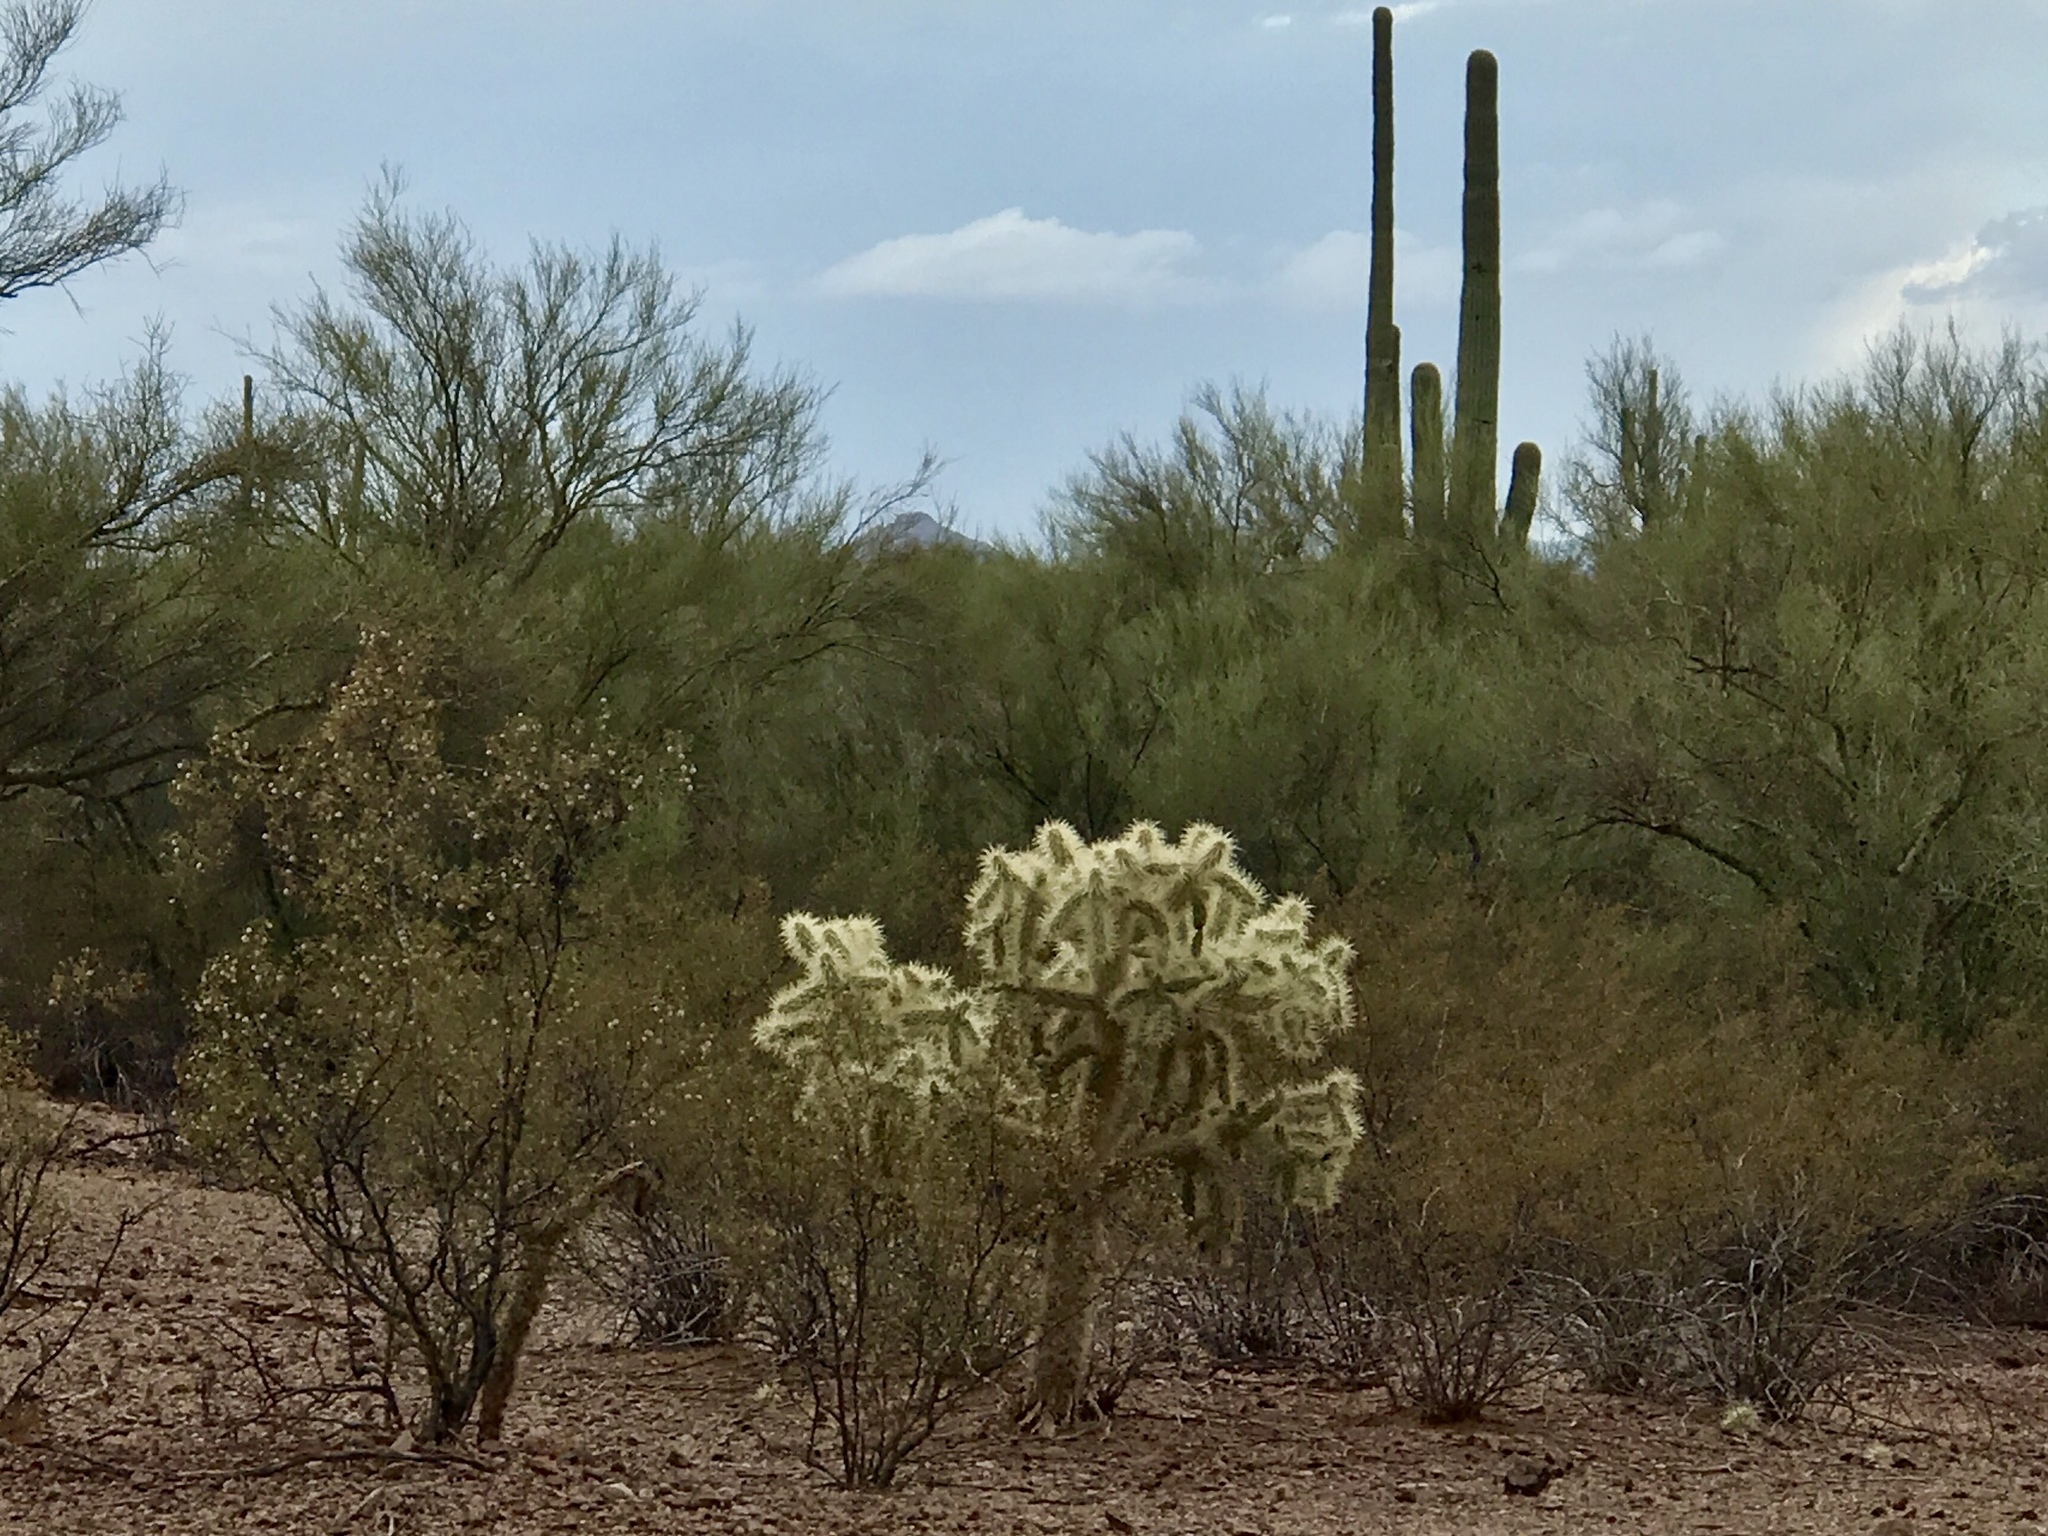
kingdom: Plantae
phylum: Tracheophyta
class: Magnoliopsida
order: Caryophyllales
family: Cactaceae
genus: Cylindropuntia
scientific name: Cylindropuntia fosbergii
